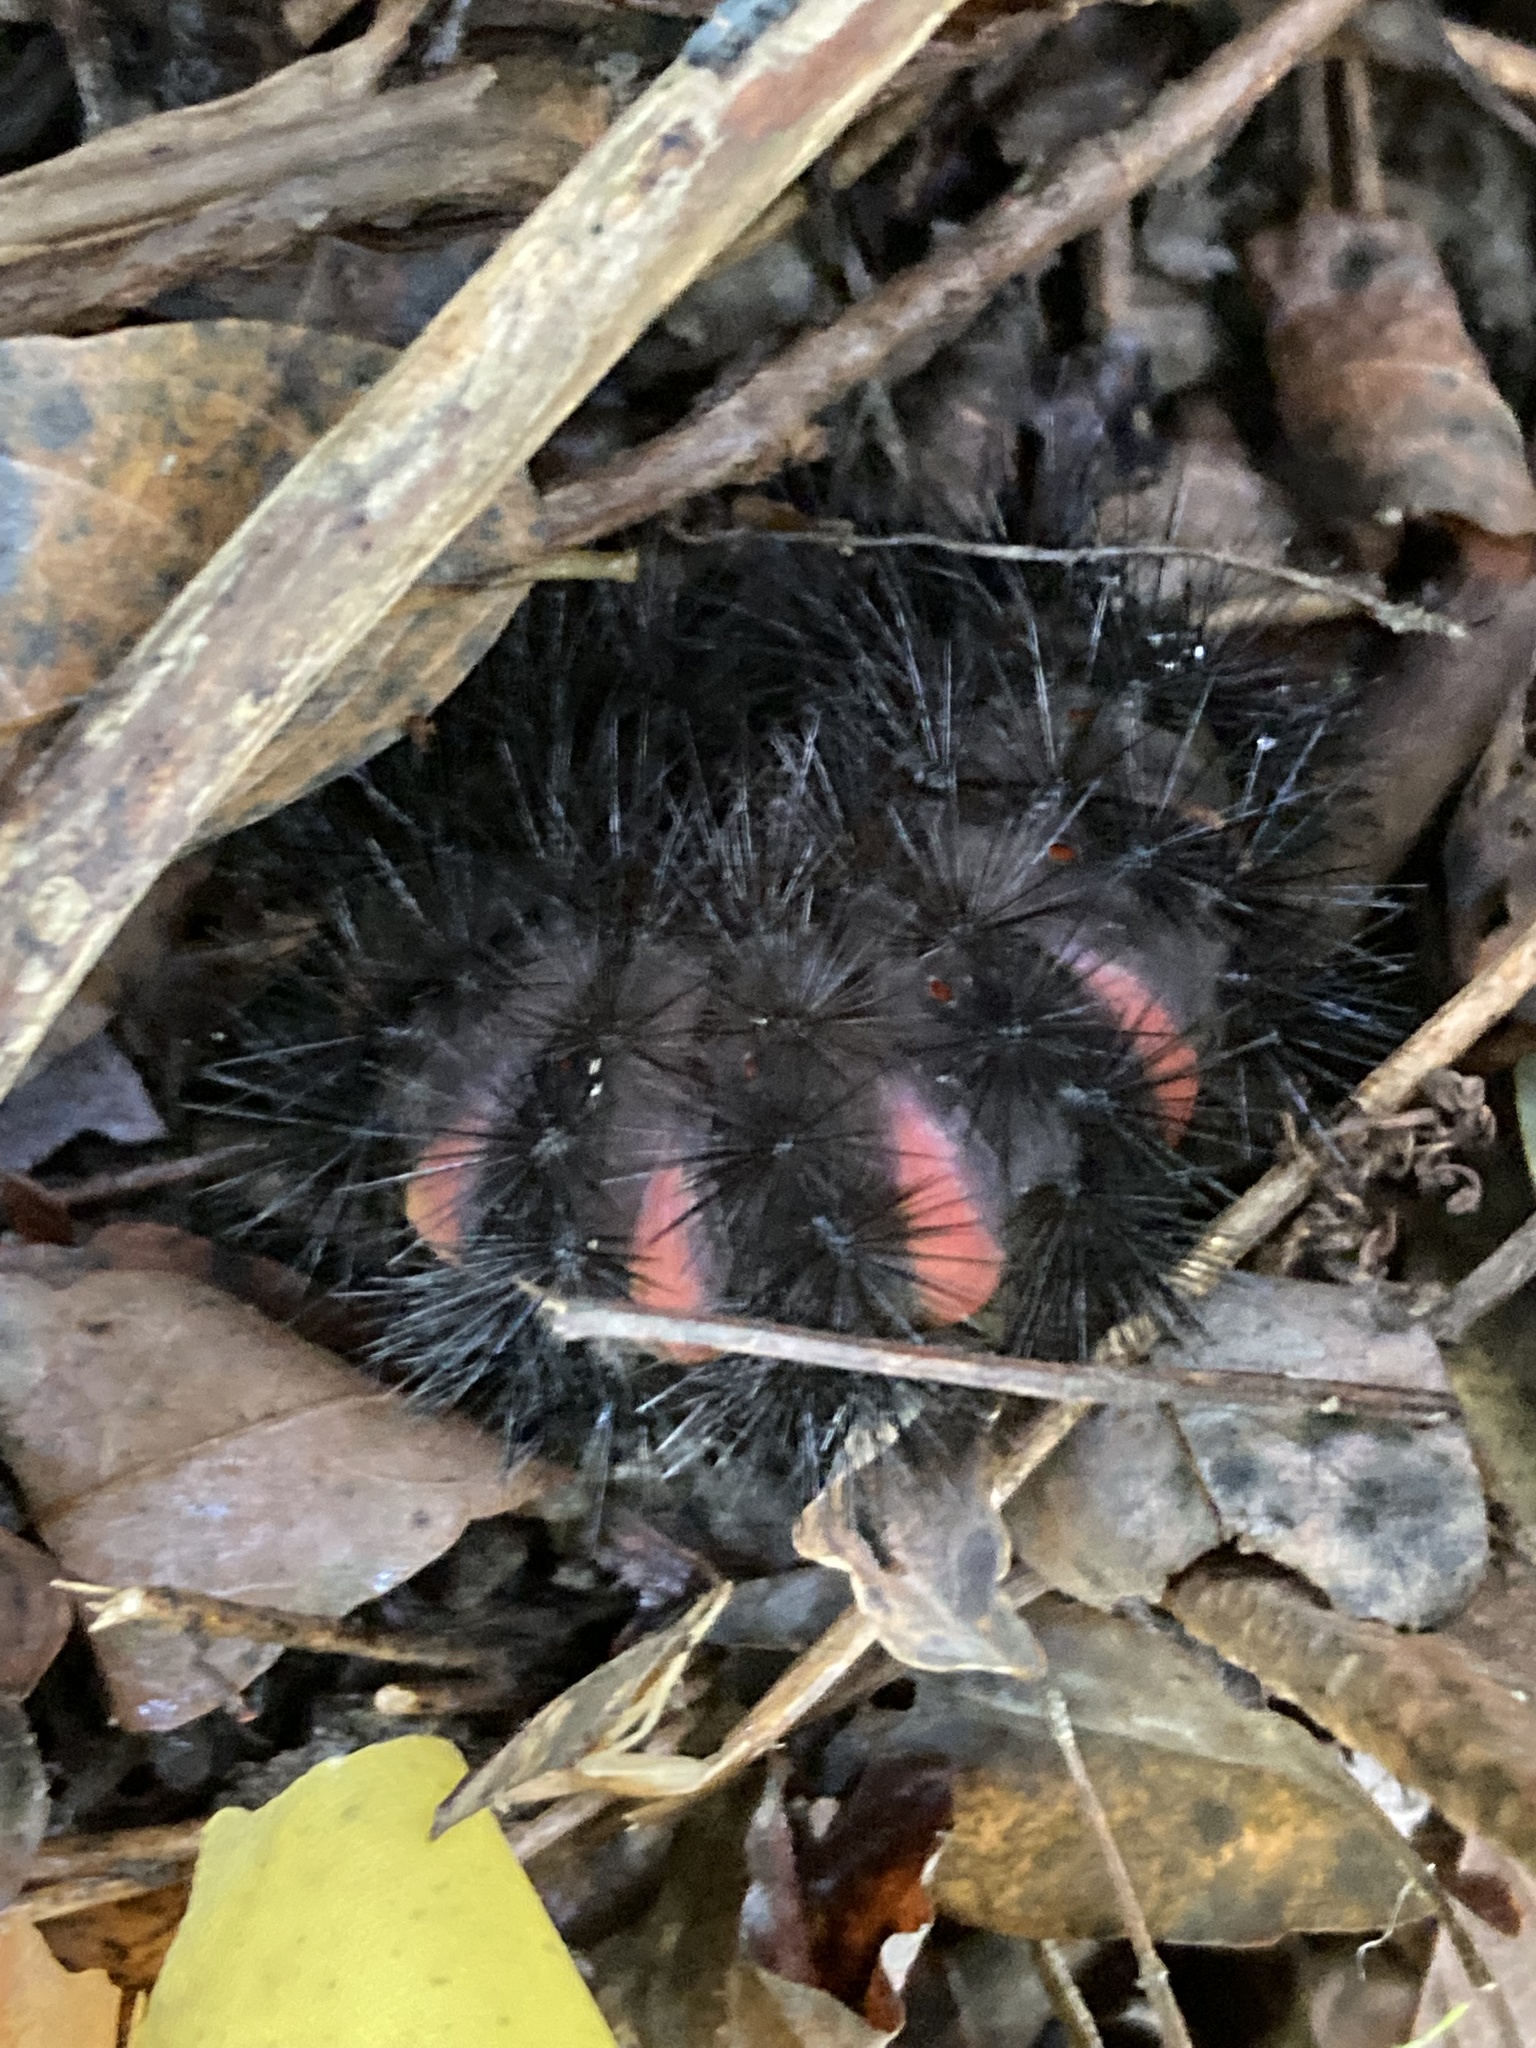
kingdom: Animalia
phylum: Arthropoda
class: Insecta
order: Lepidoptera
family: Erebidae
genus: Hypercompe
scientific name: Hypercompe scribonia
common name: Giant leopard moth
